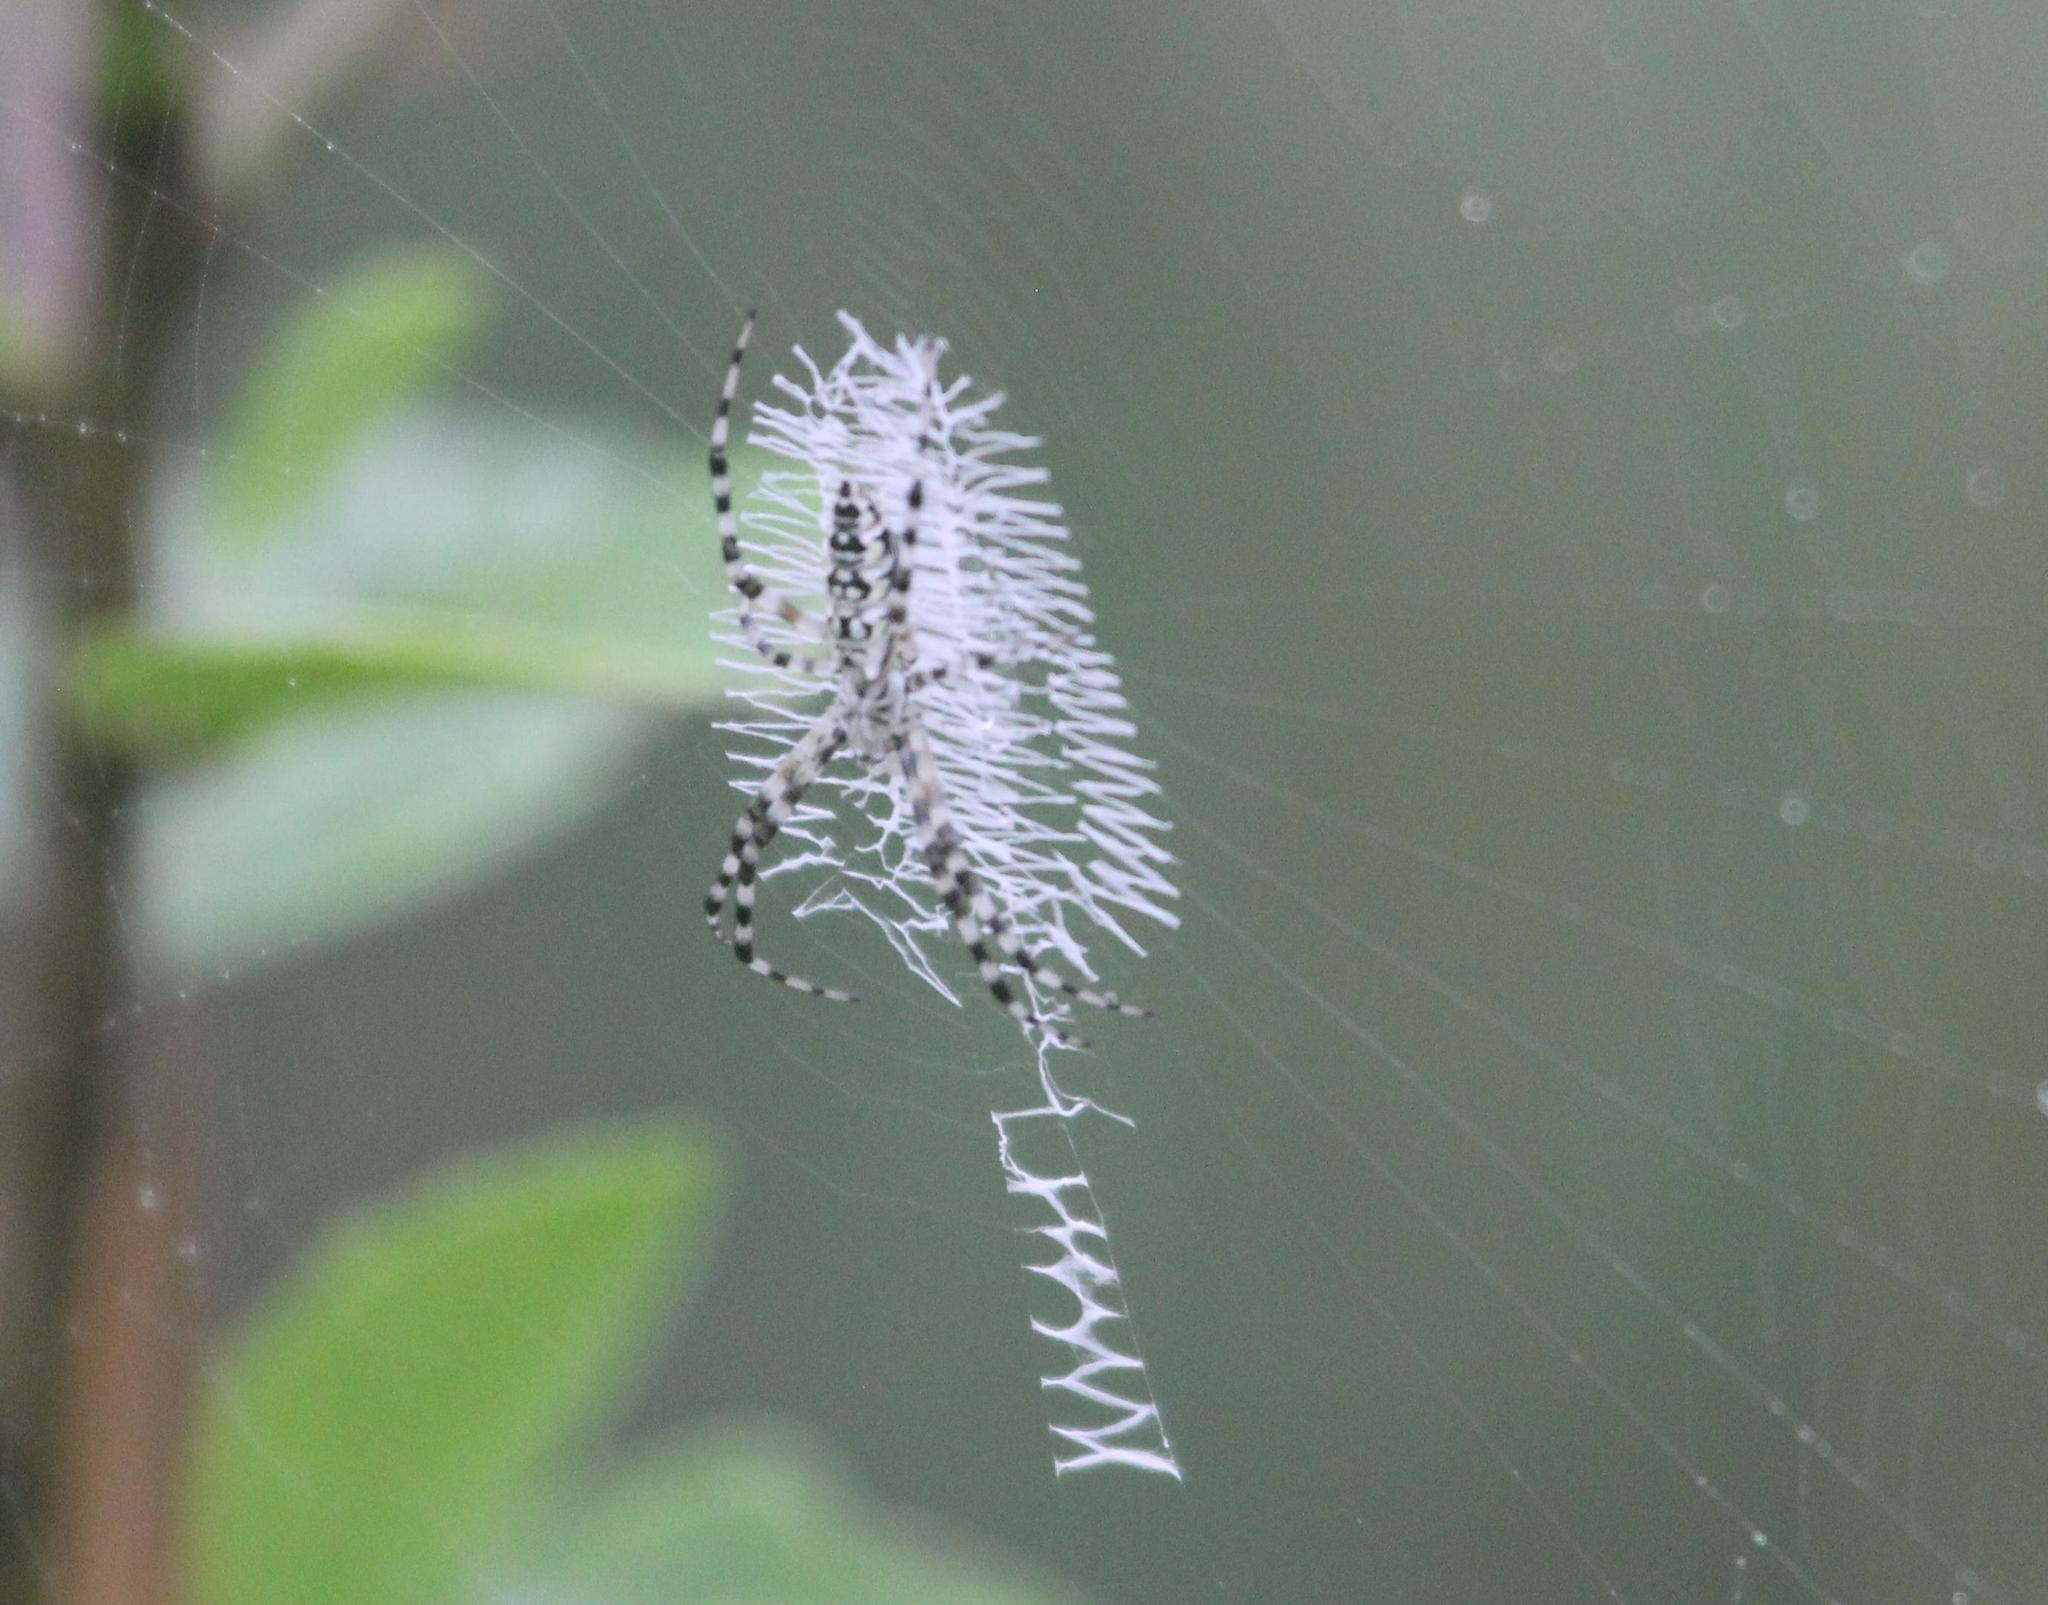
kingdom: Animalia
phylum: Arthropoda
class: Arachnida
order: Araneae
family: Araneidae
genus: Argiope
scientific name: Argiope aurantia
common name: Orb weavers
